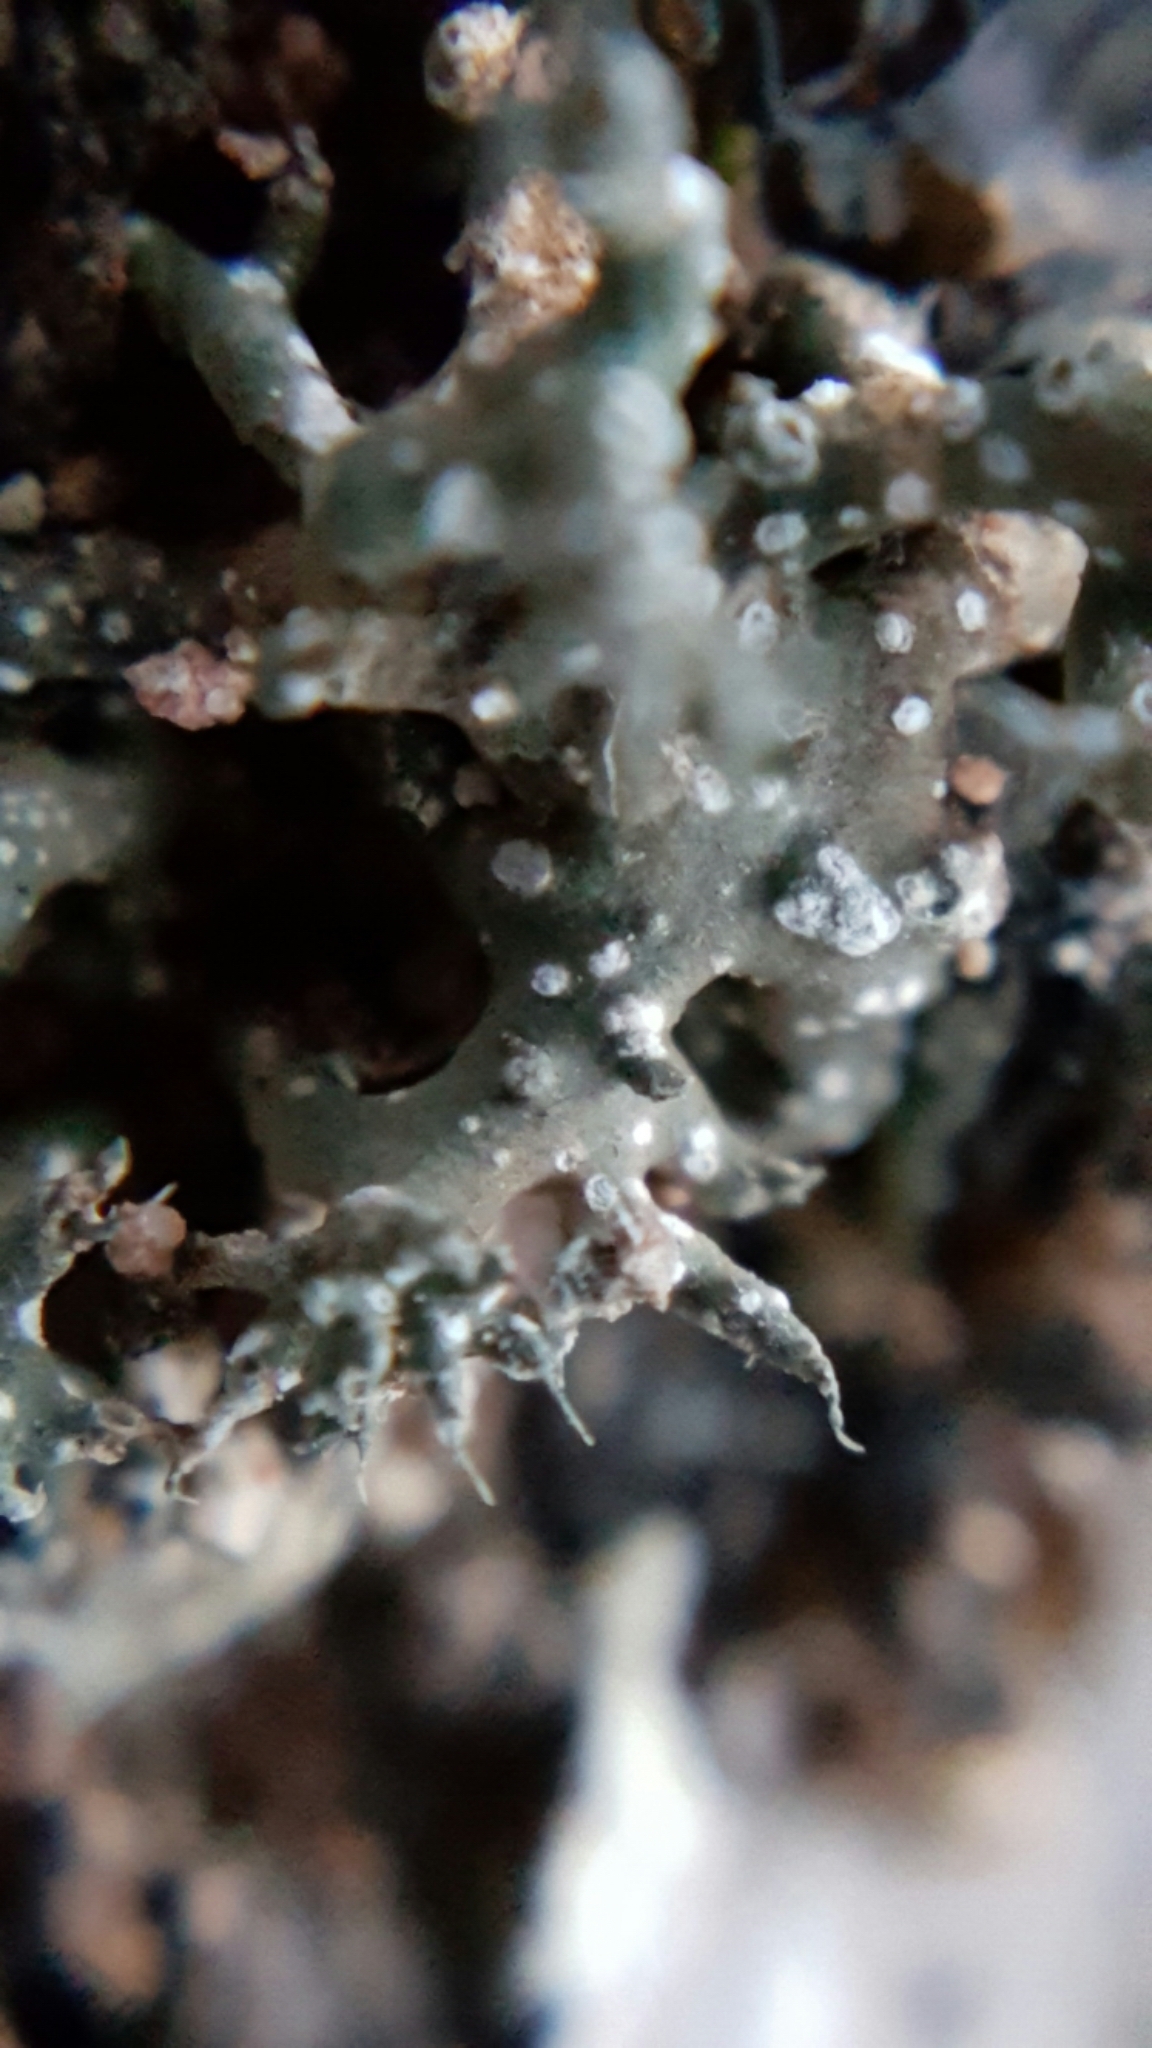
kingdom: Fungi
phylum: Ascomycota
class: Lecanoromycetes
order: Pertusariales
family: Megasporaceae
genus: Circinaria
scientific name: Circinaria hispida
